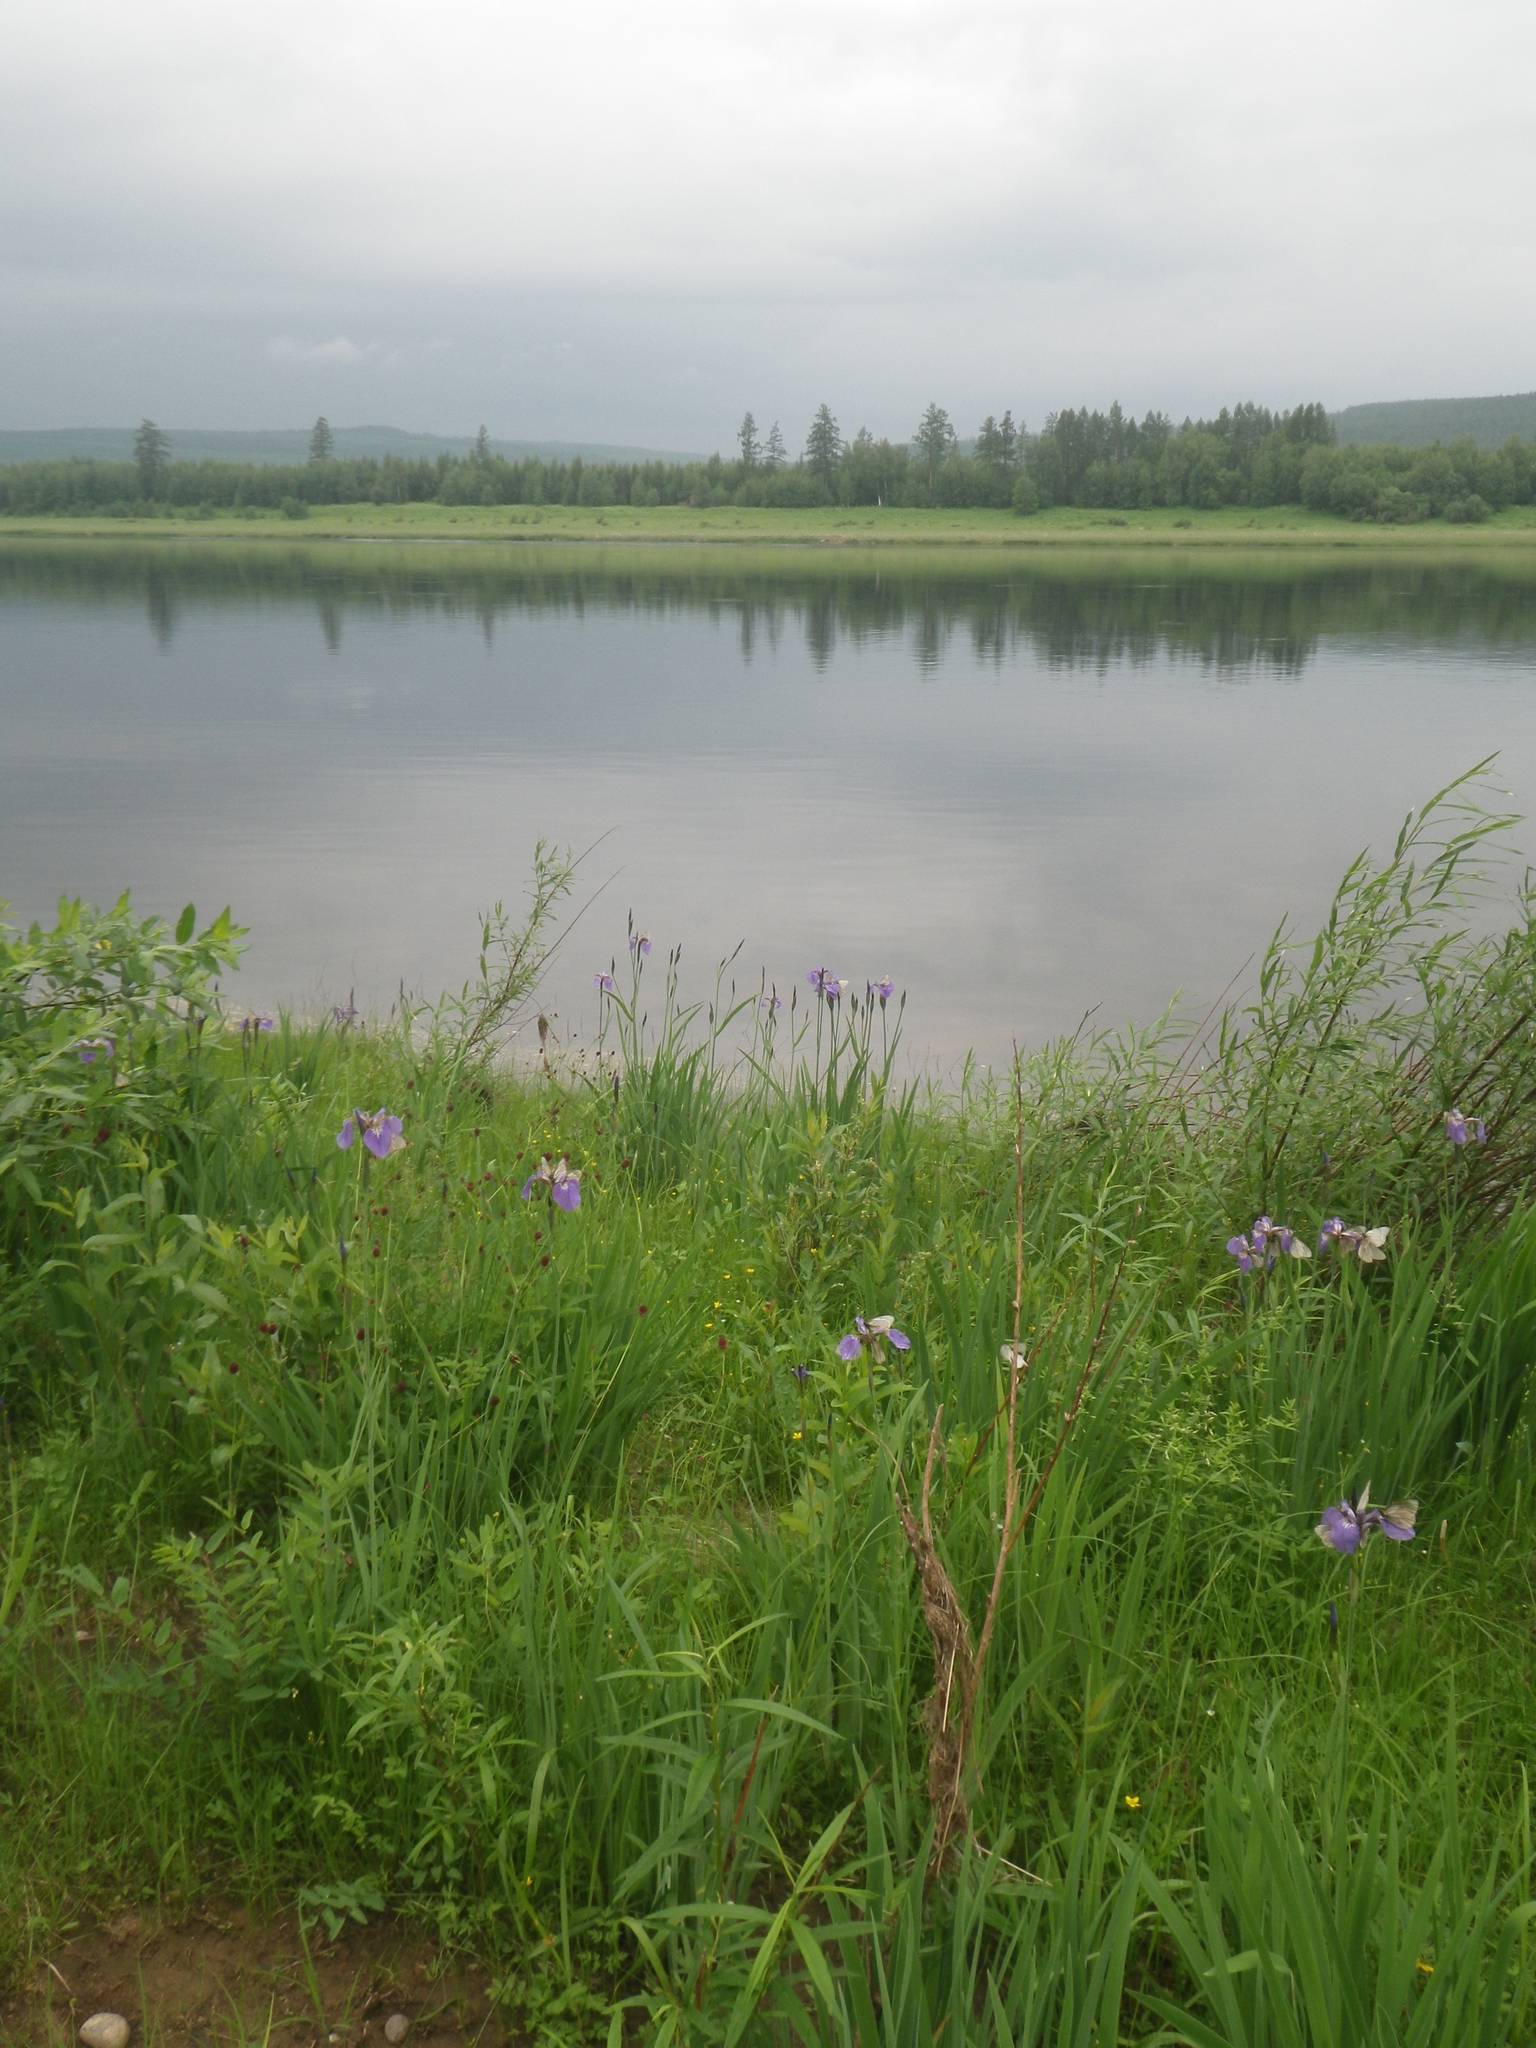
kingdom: Plantae
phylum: Tracheophyta
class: Liliopsida
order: Asparagales
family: Iridaceae
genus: Iris
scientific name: Iris setosa
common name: Arctic blue flag
